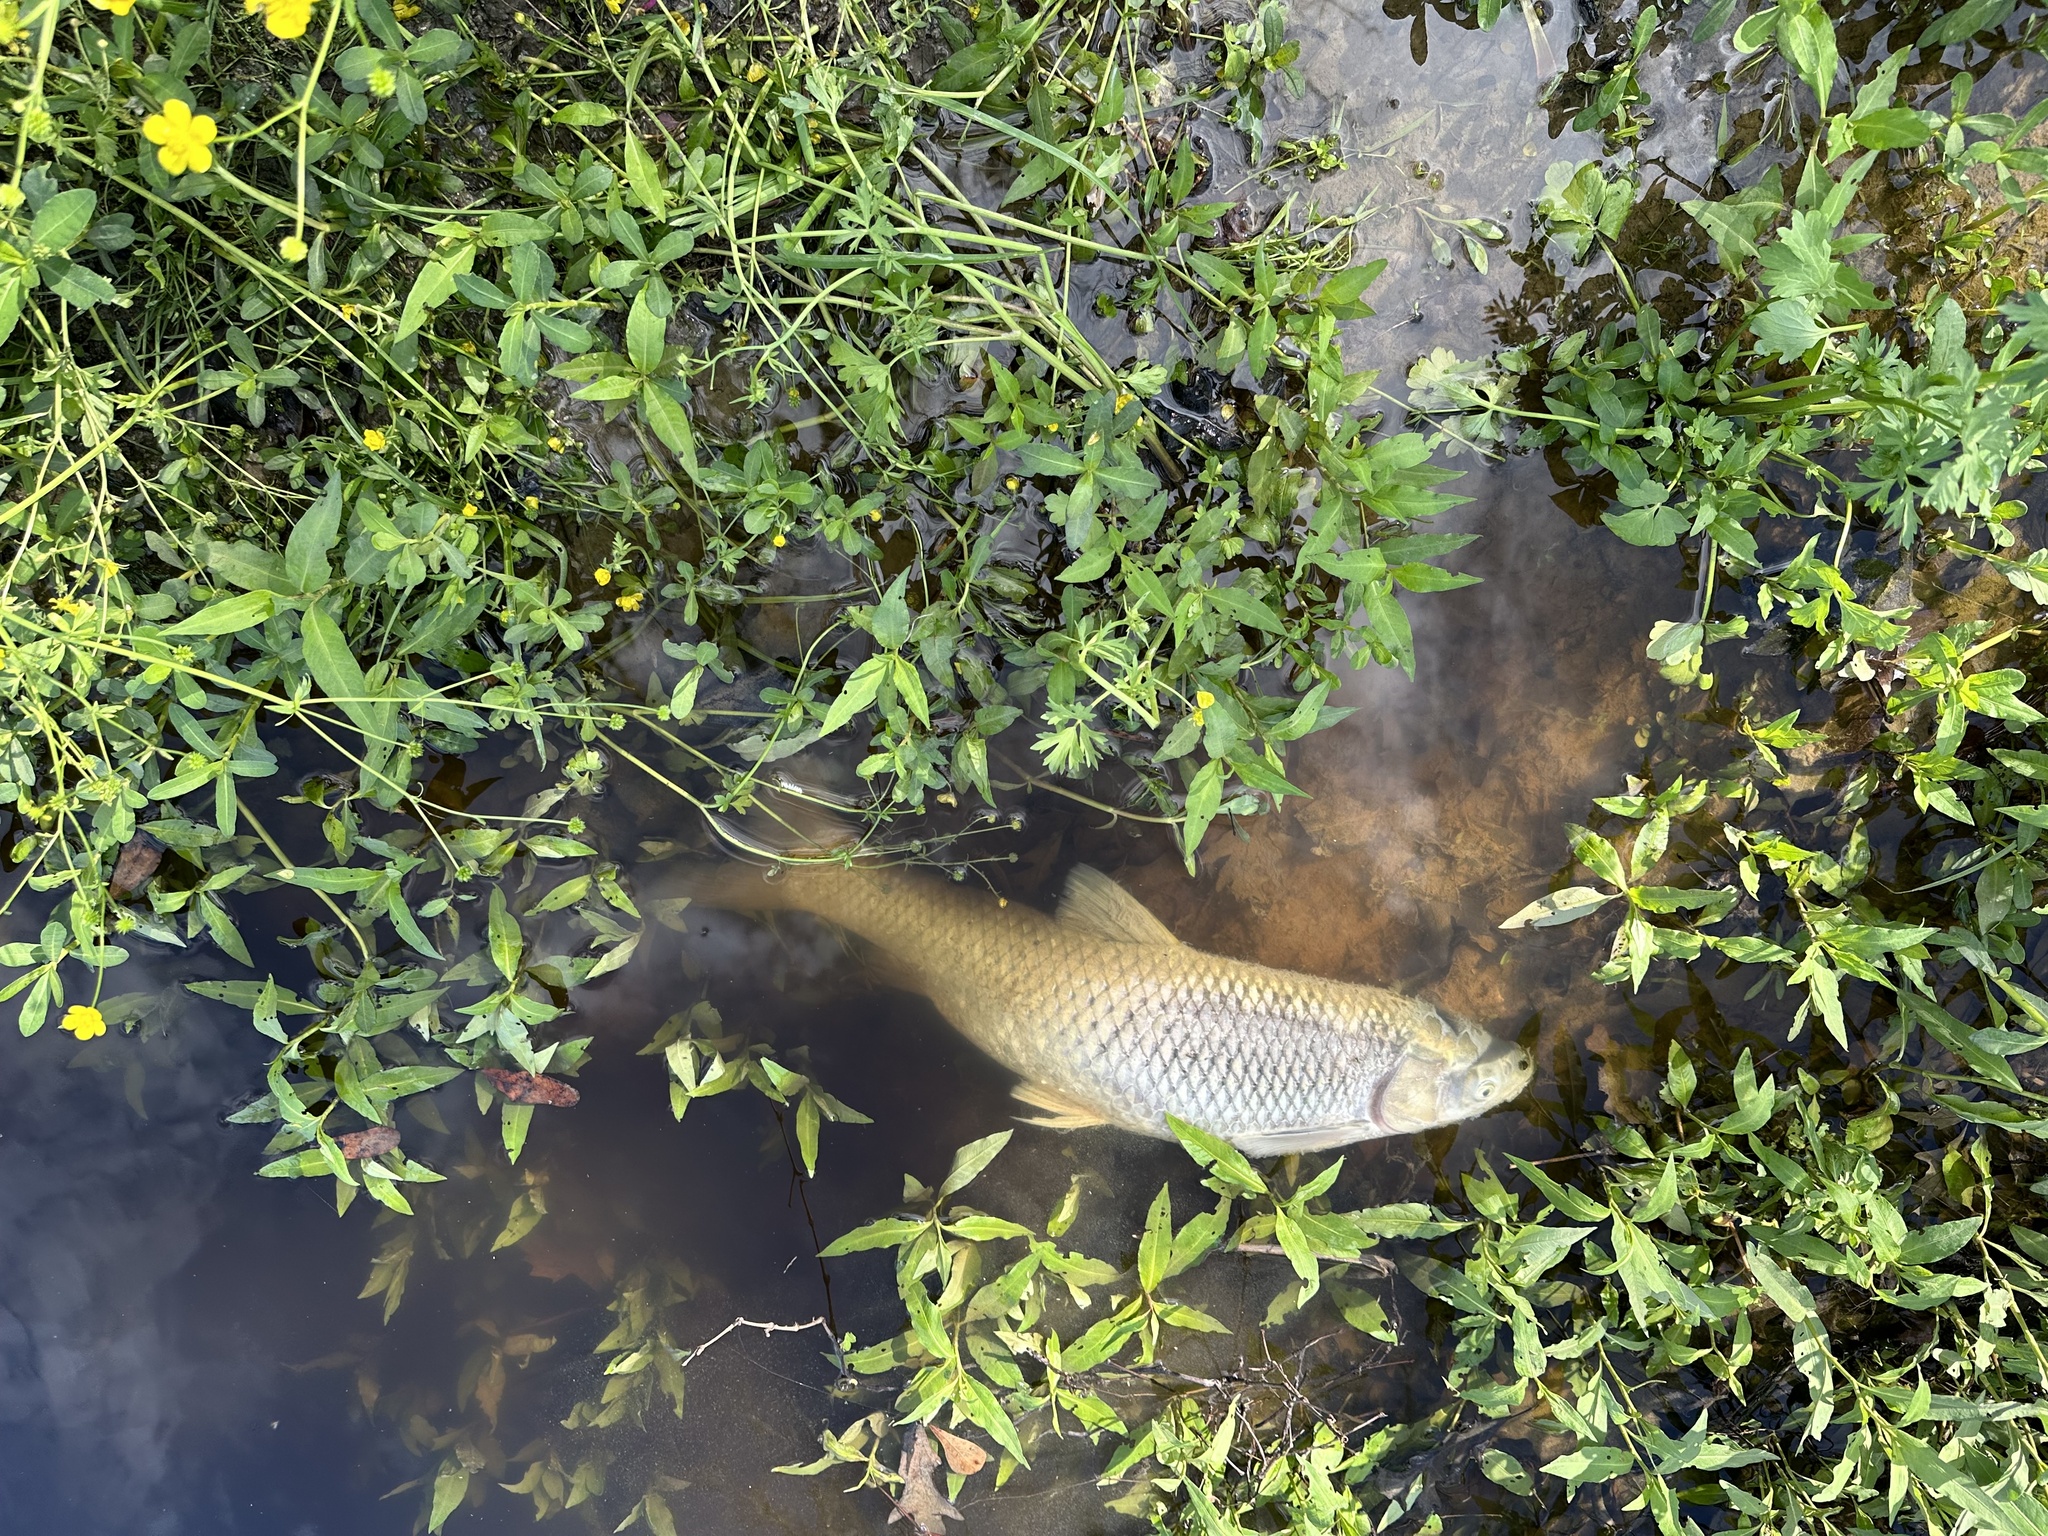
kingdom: Animalia
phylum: Chordata
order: Cypriniformes
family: Cyprinidae
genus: Ctenopharyngodon
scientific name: Ctenopharyngodon idella
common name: Grass carp
